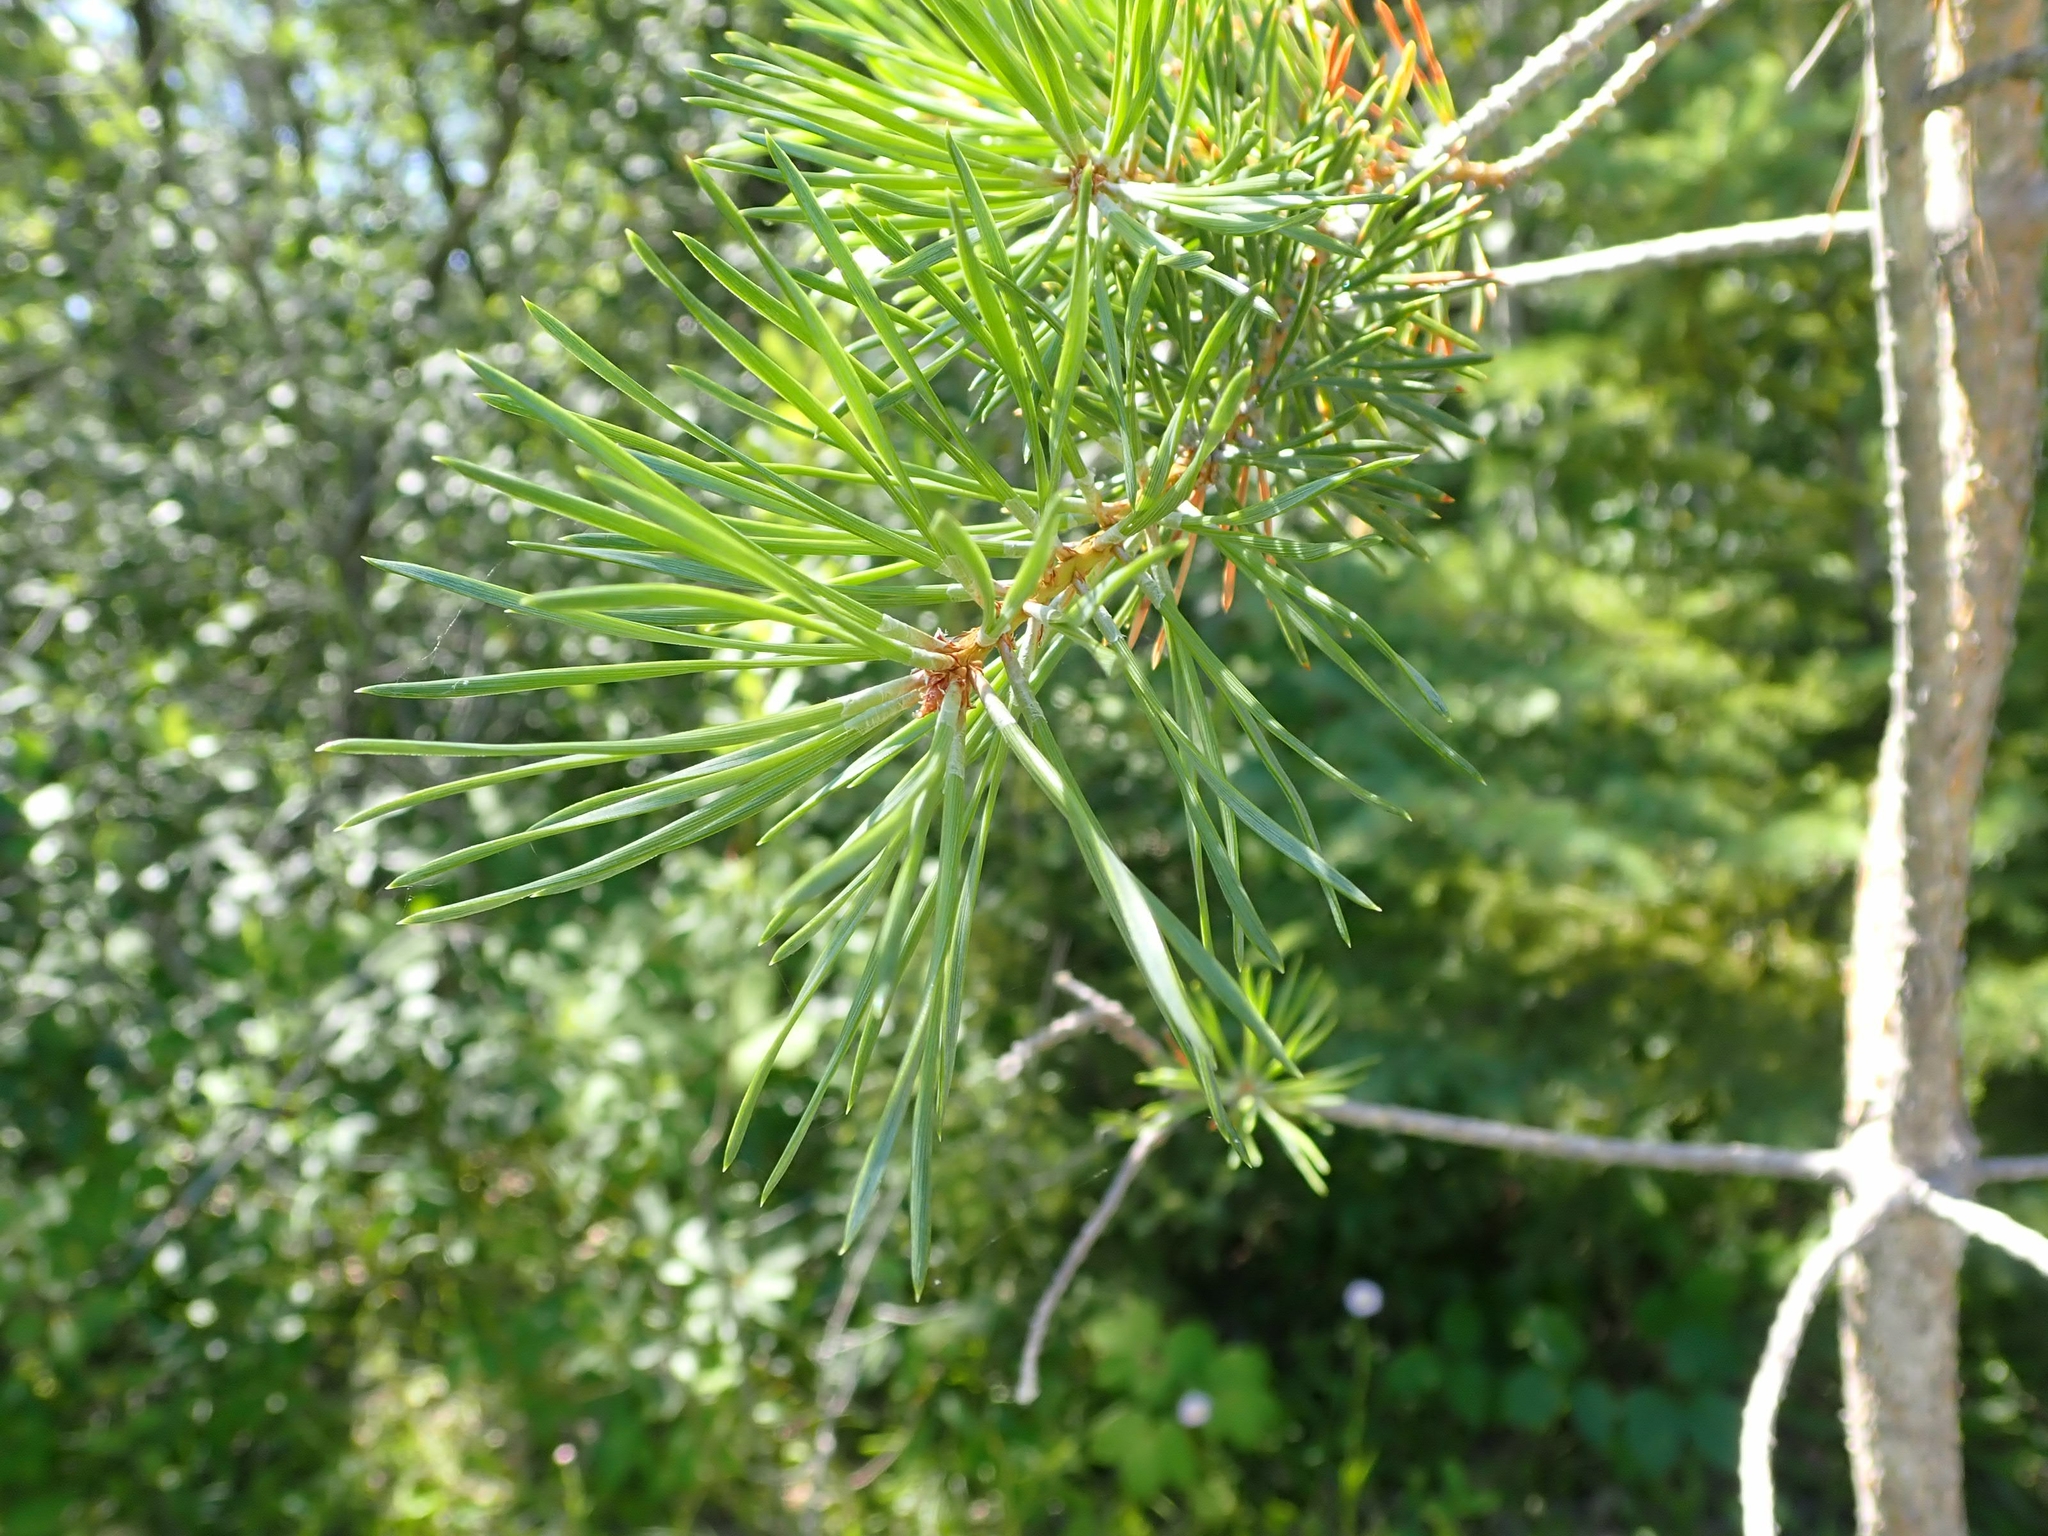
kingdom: Plantae
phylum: Tracheophyta
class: Pinopsida
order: Pinales
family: Pinaceae
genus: Pinus
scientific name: Pinus resinosa
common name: Norway pine
